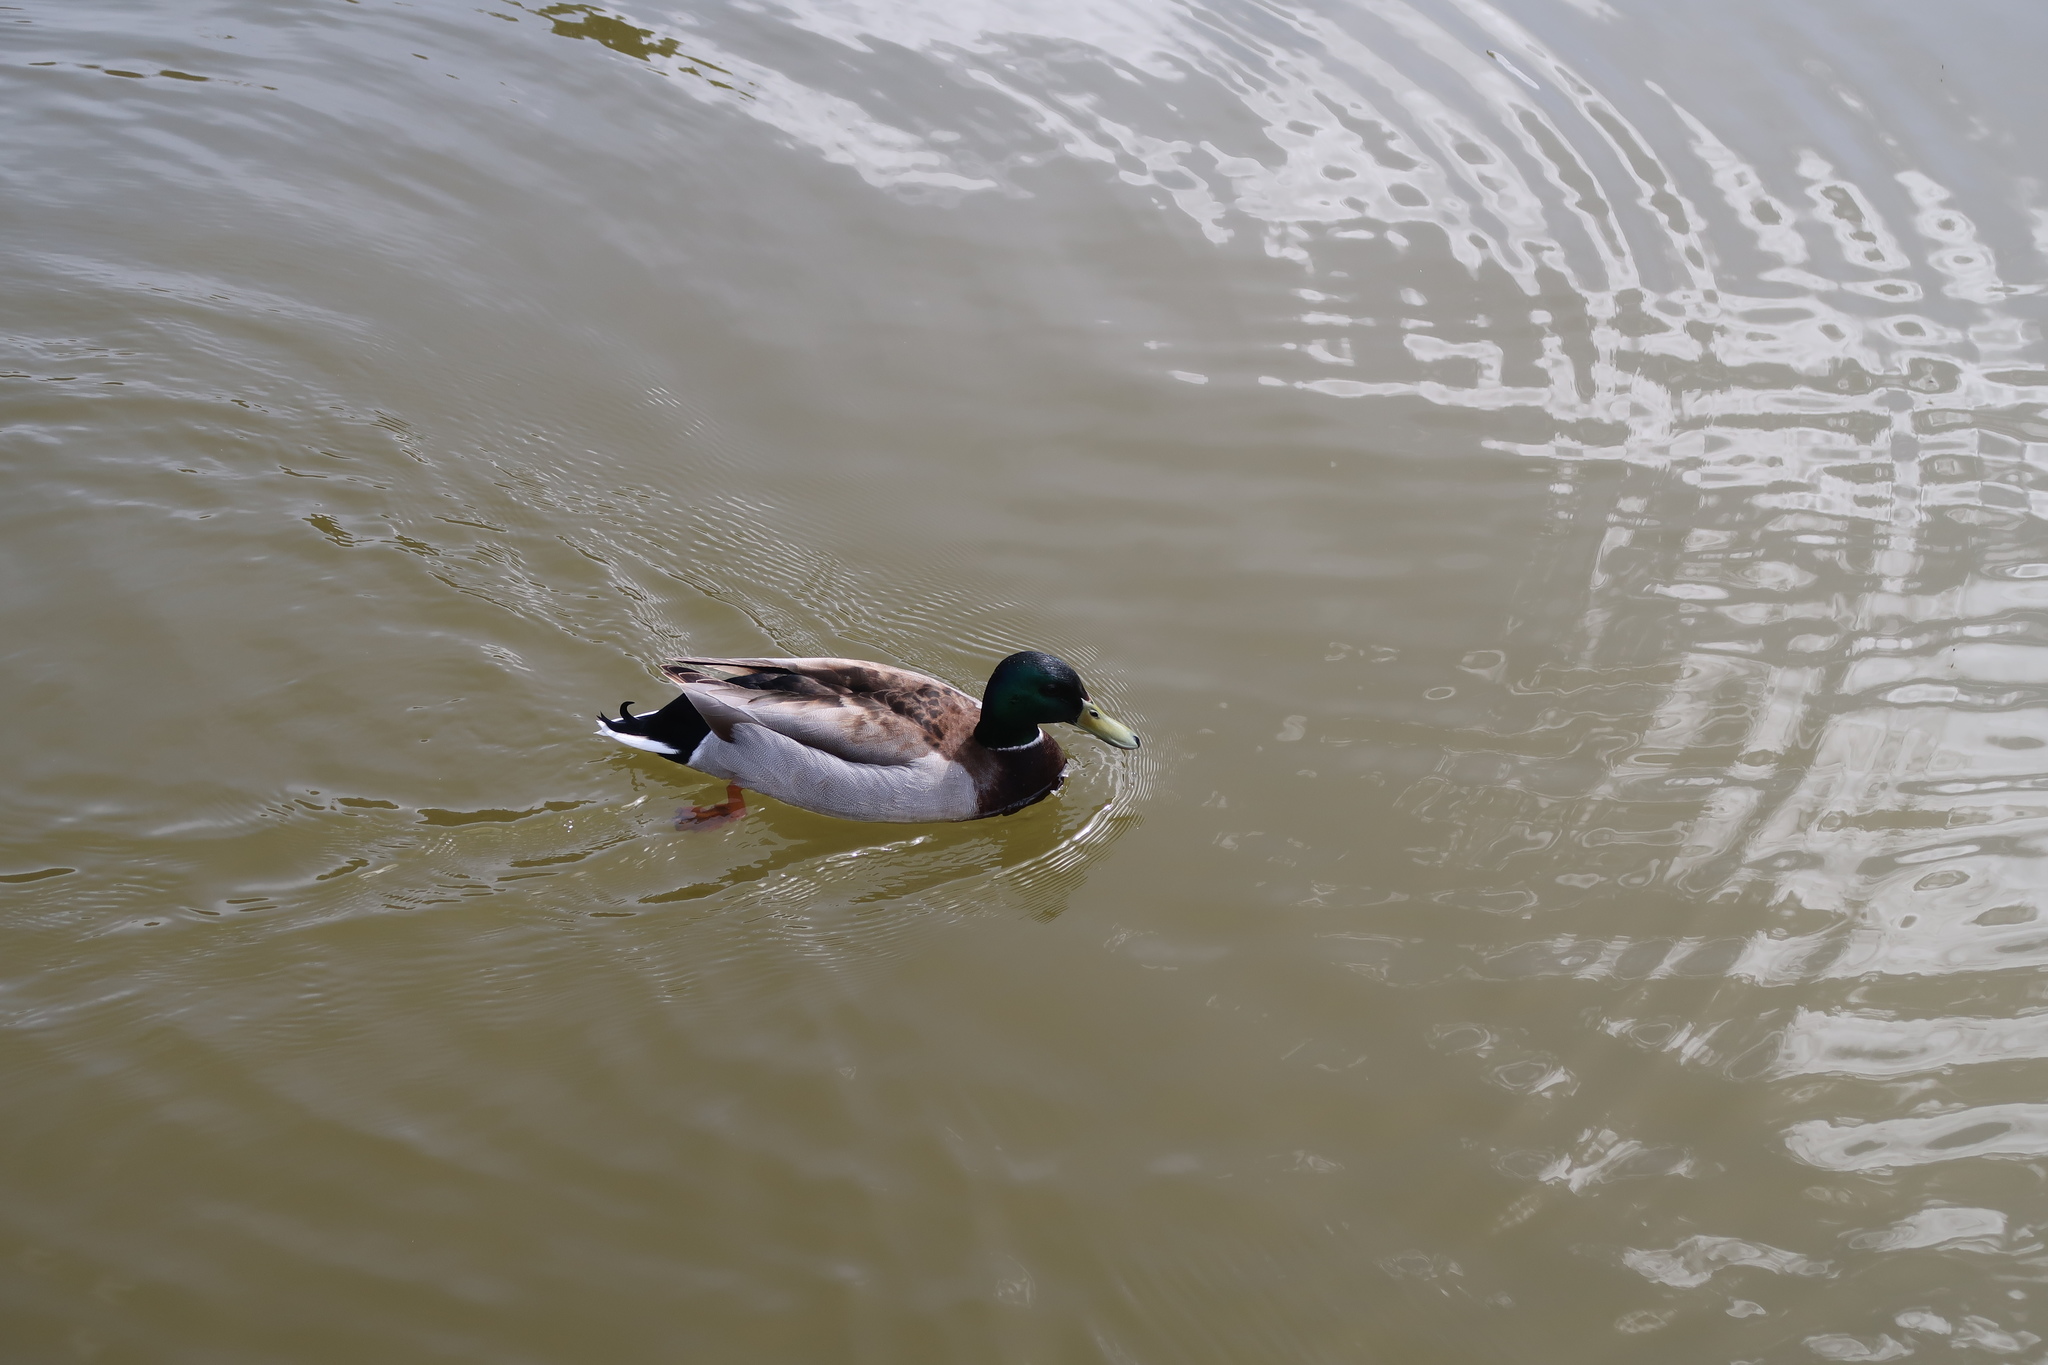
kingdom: Animalia
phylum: Chordata
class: Aves
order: Anseriformes
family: Anatidae
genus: Anas
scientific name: Anas platyrhynchos
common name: Mallard
